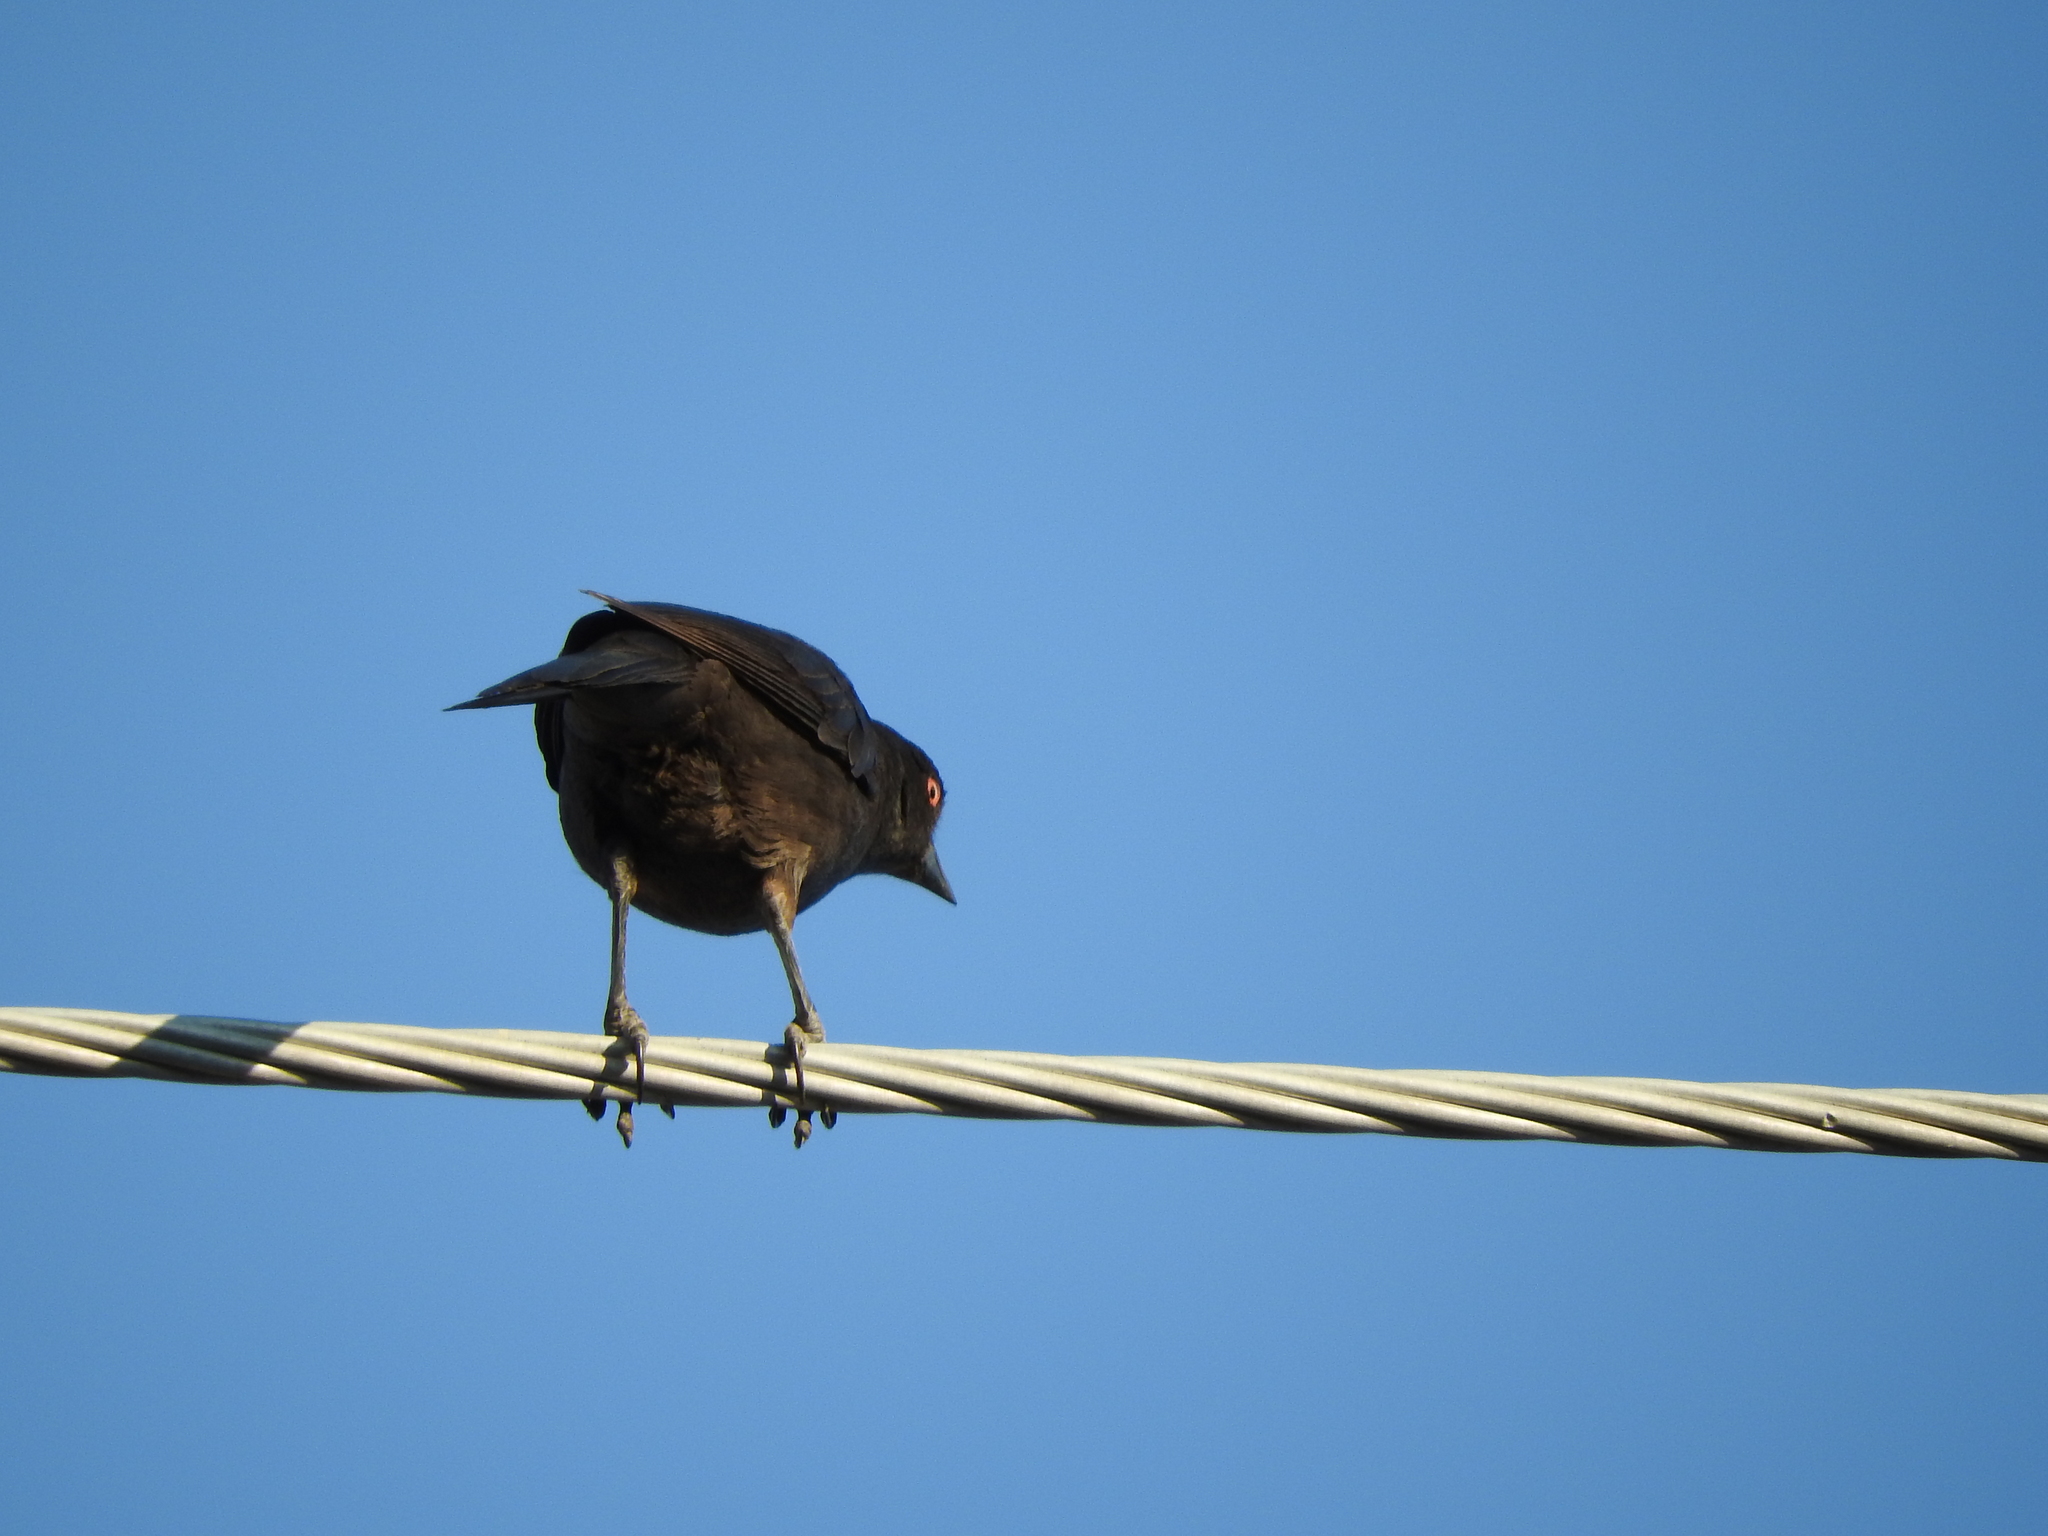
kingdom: Animalia
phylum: Chordata
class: Aves
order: Passeriformes
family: Icteridae
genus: Molothrus
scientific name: Molothrus aeneus
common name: Bronzed cowbird
